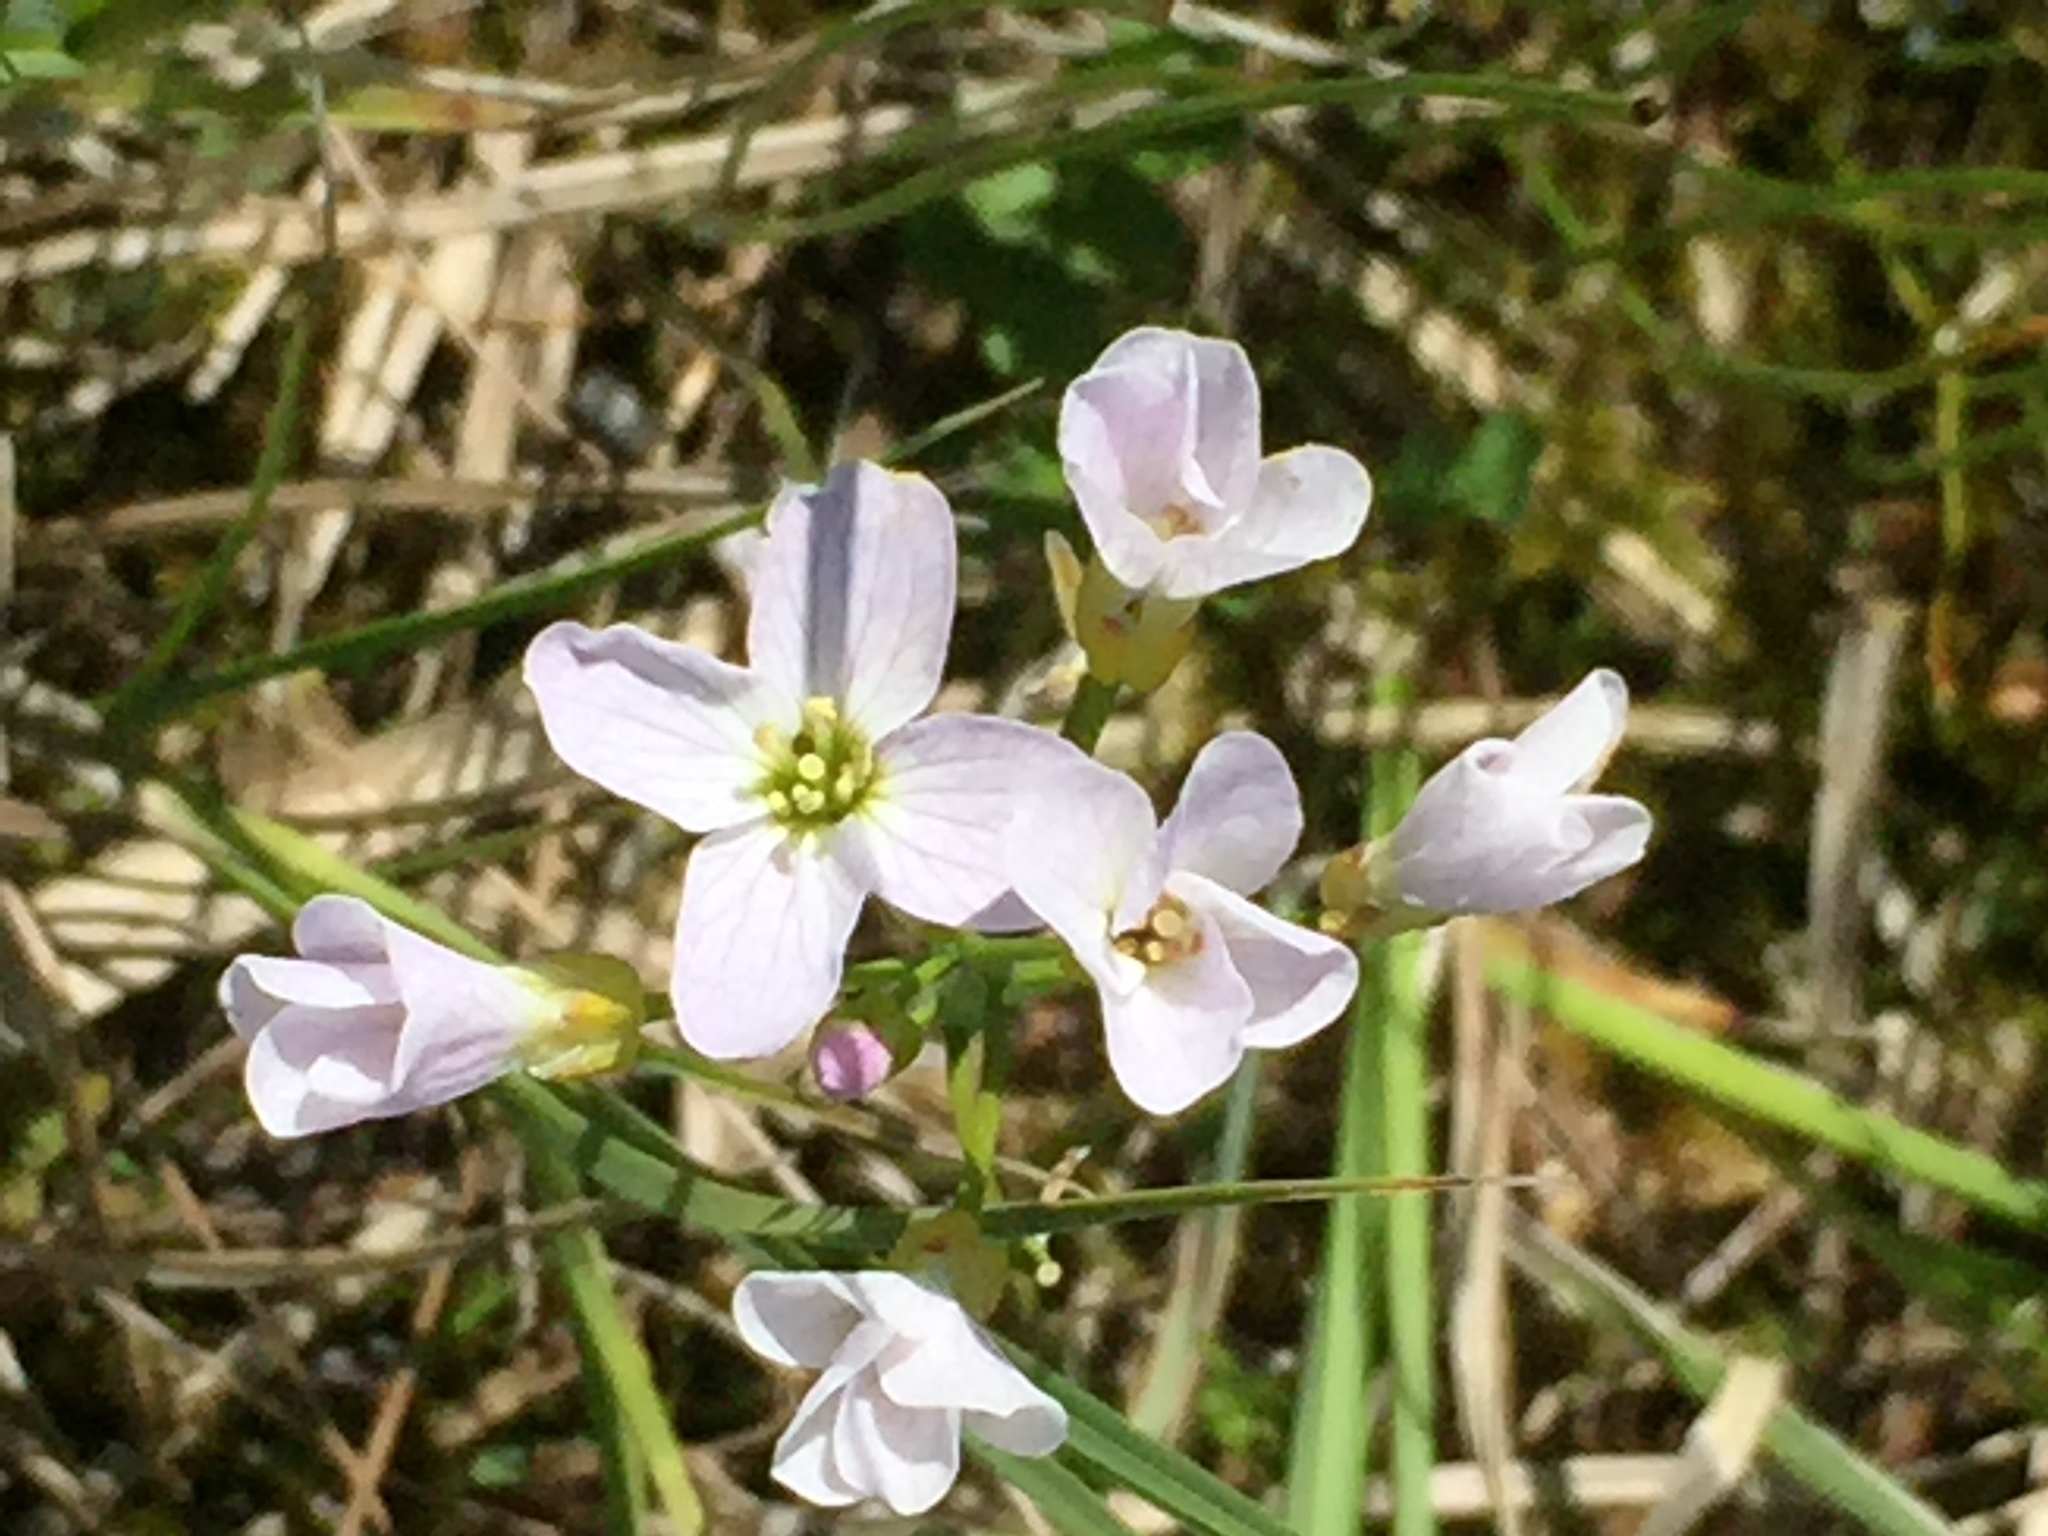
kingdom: Plantae
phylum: Tracheophyta
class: Magnoliopsida
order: Brassicales
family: Brassicaceae
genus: Cardamine
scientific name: Cardamine pratensis
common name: Cuckoo flower
